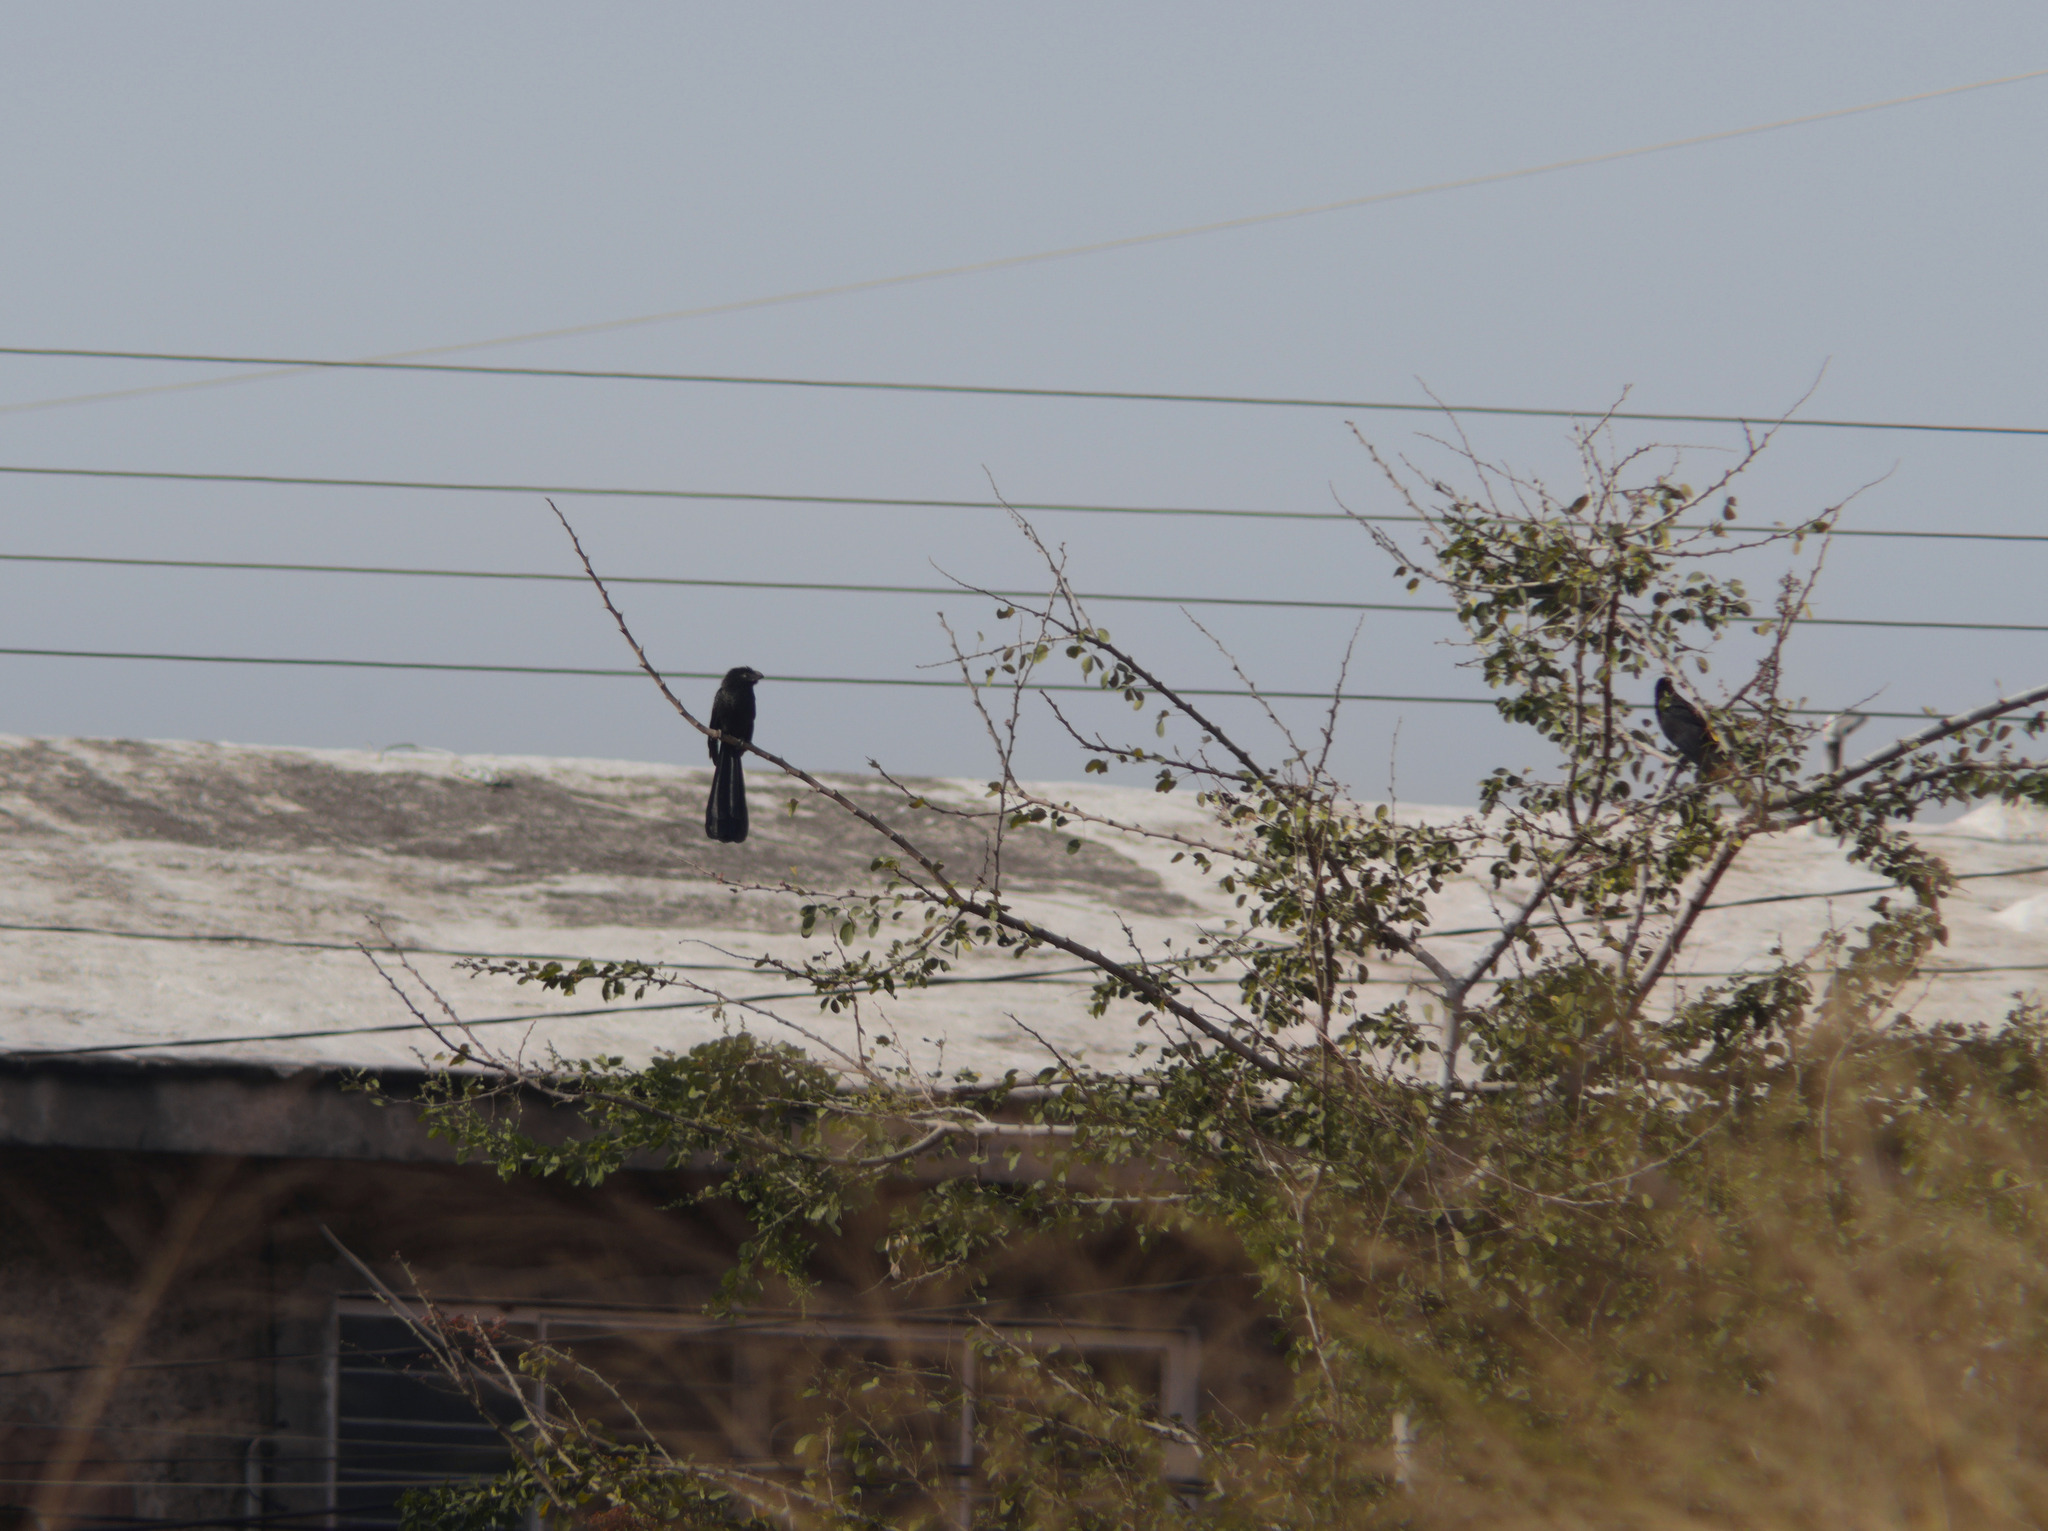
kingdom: Animalia
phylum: Chordata
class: Aves
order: Cuculiformes
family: Cuculidae
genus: Crotophaga
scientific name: Crotophaga sulcirostris
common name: Groove-billed ani
